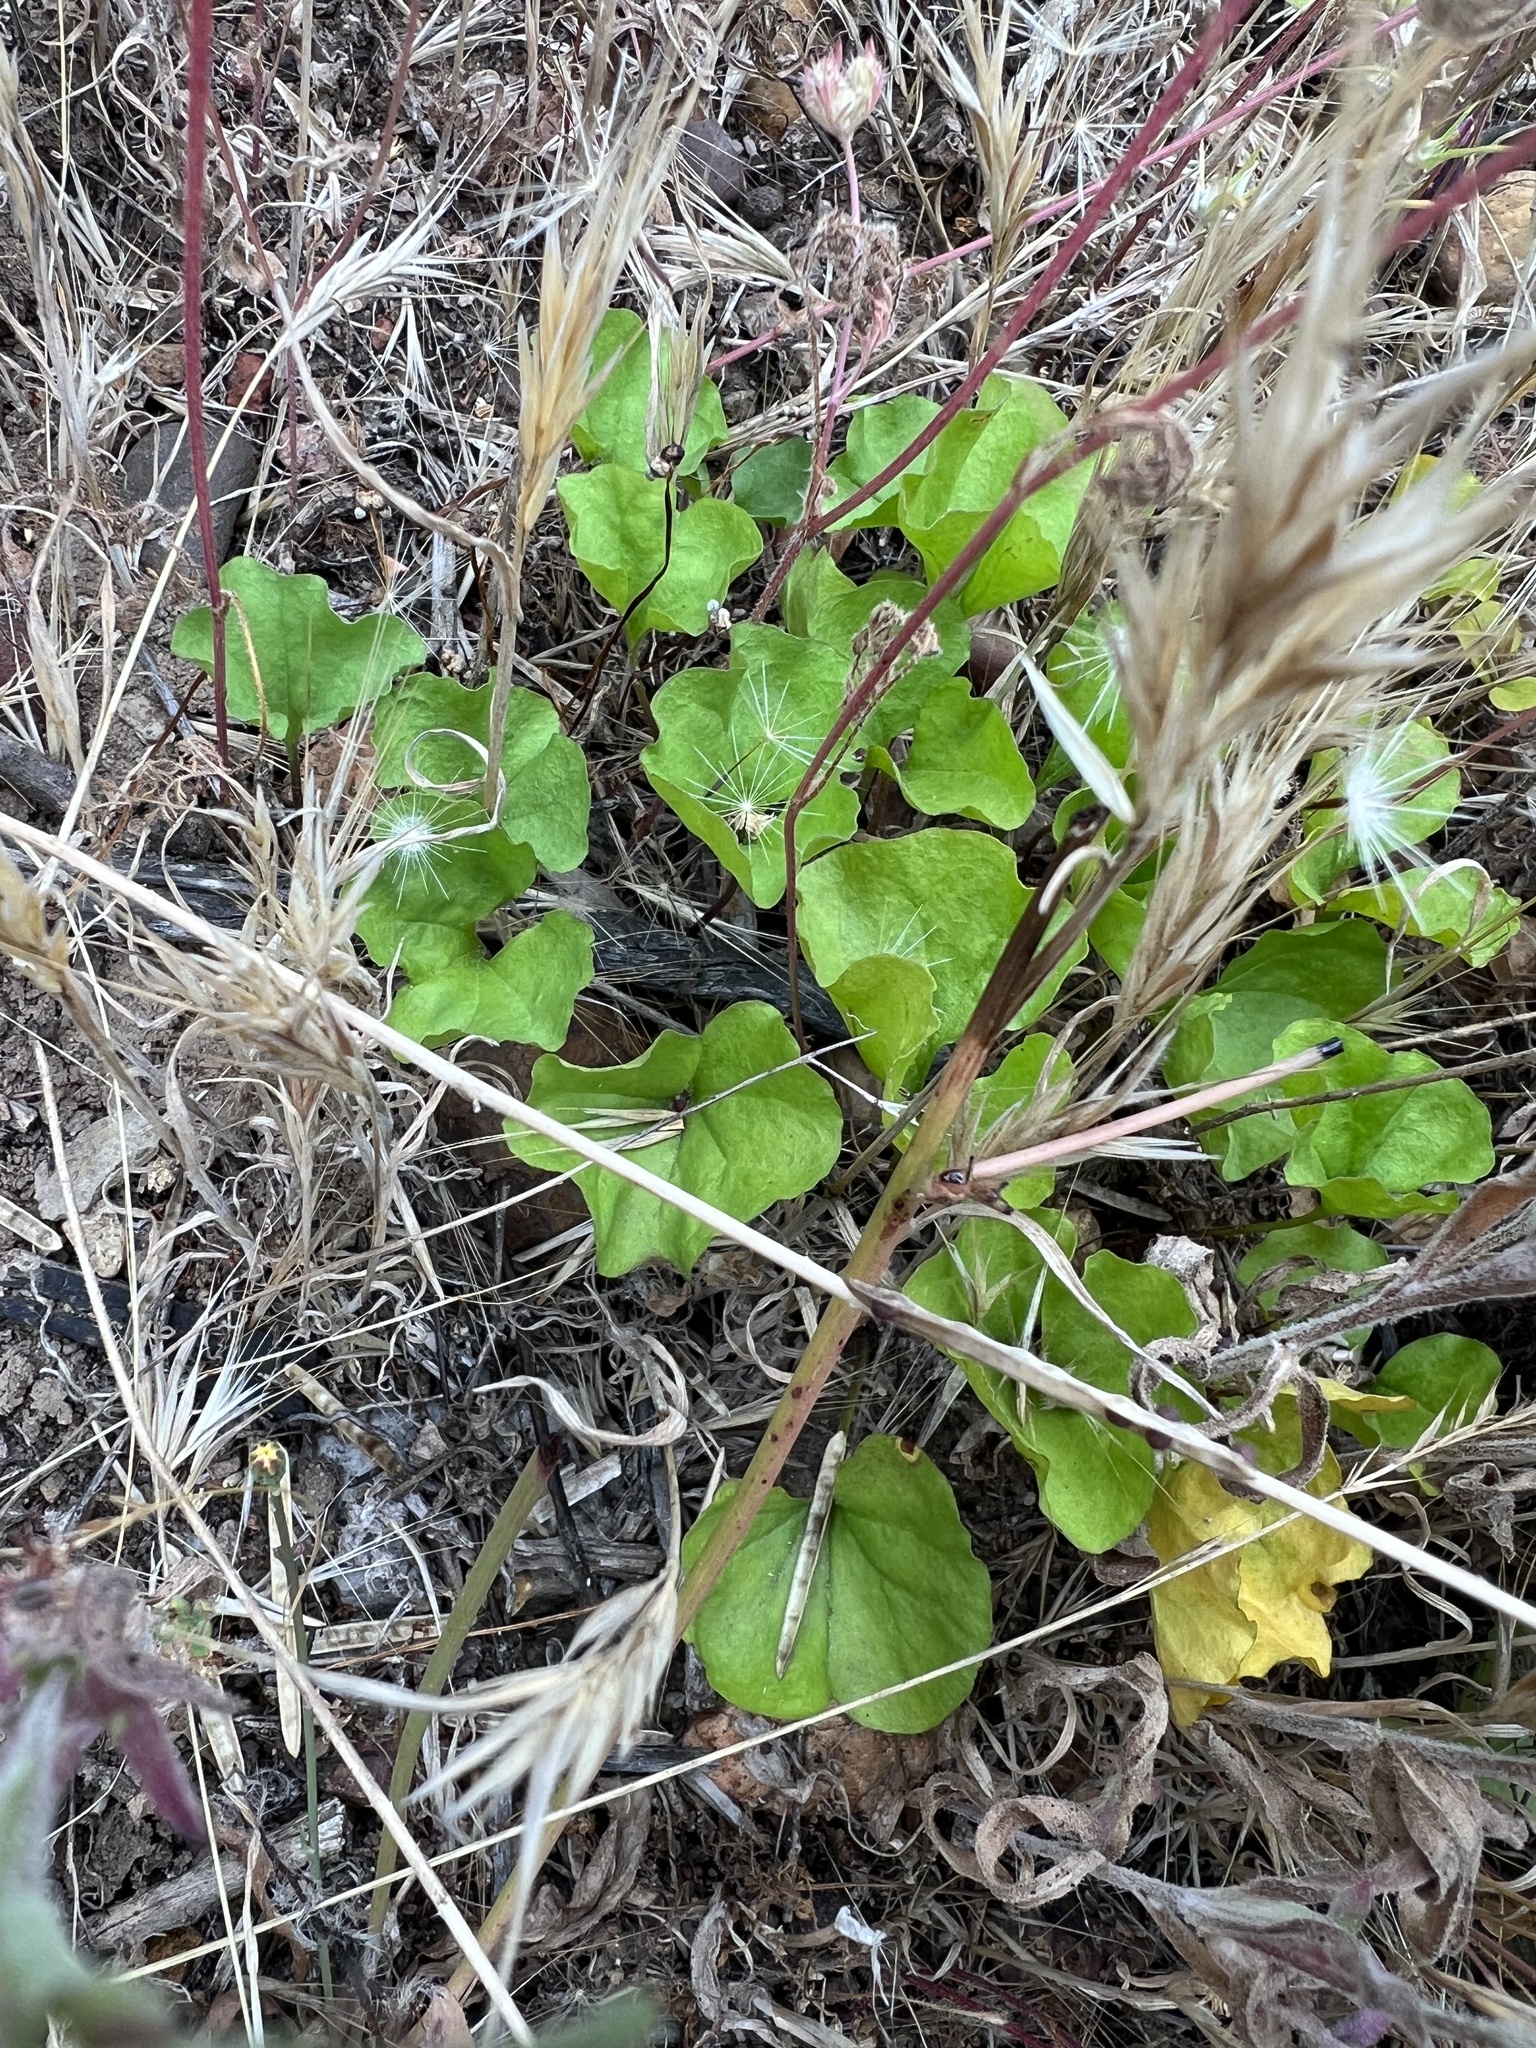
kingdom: Plantae
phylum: Tracheophyta
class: Magnoliopsida
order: Solanales
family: Convolvulaceae
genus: Dichondra
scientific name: Dichondra occidentalis
